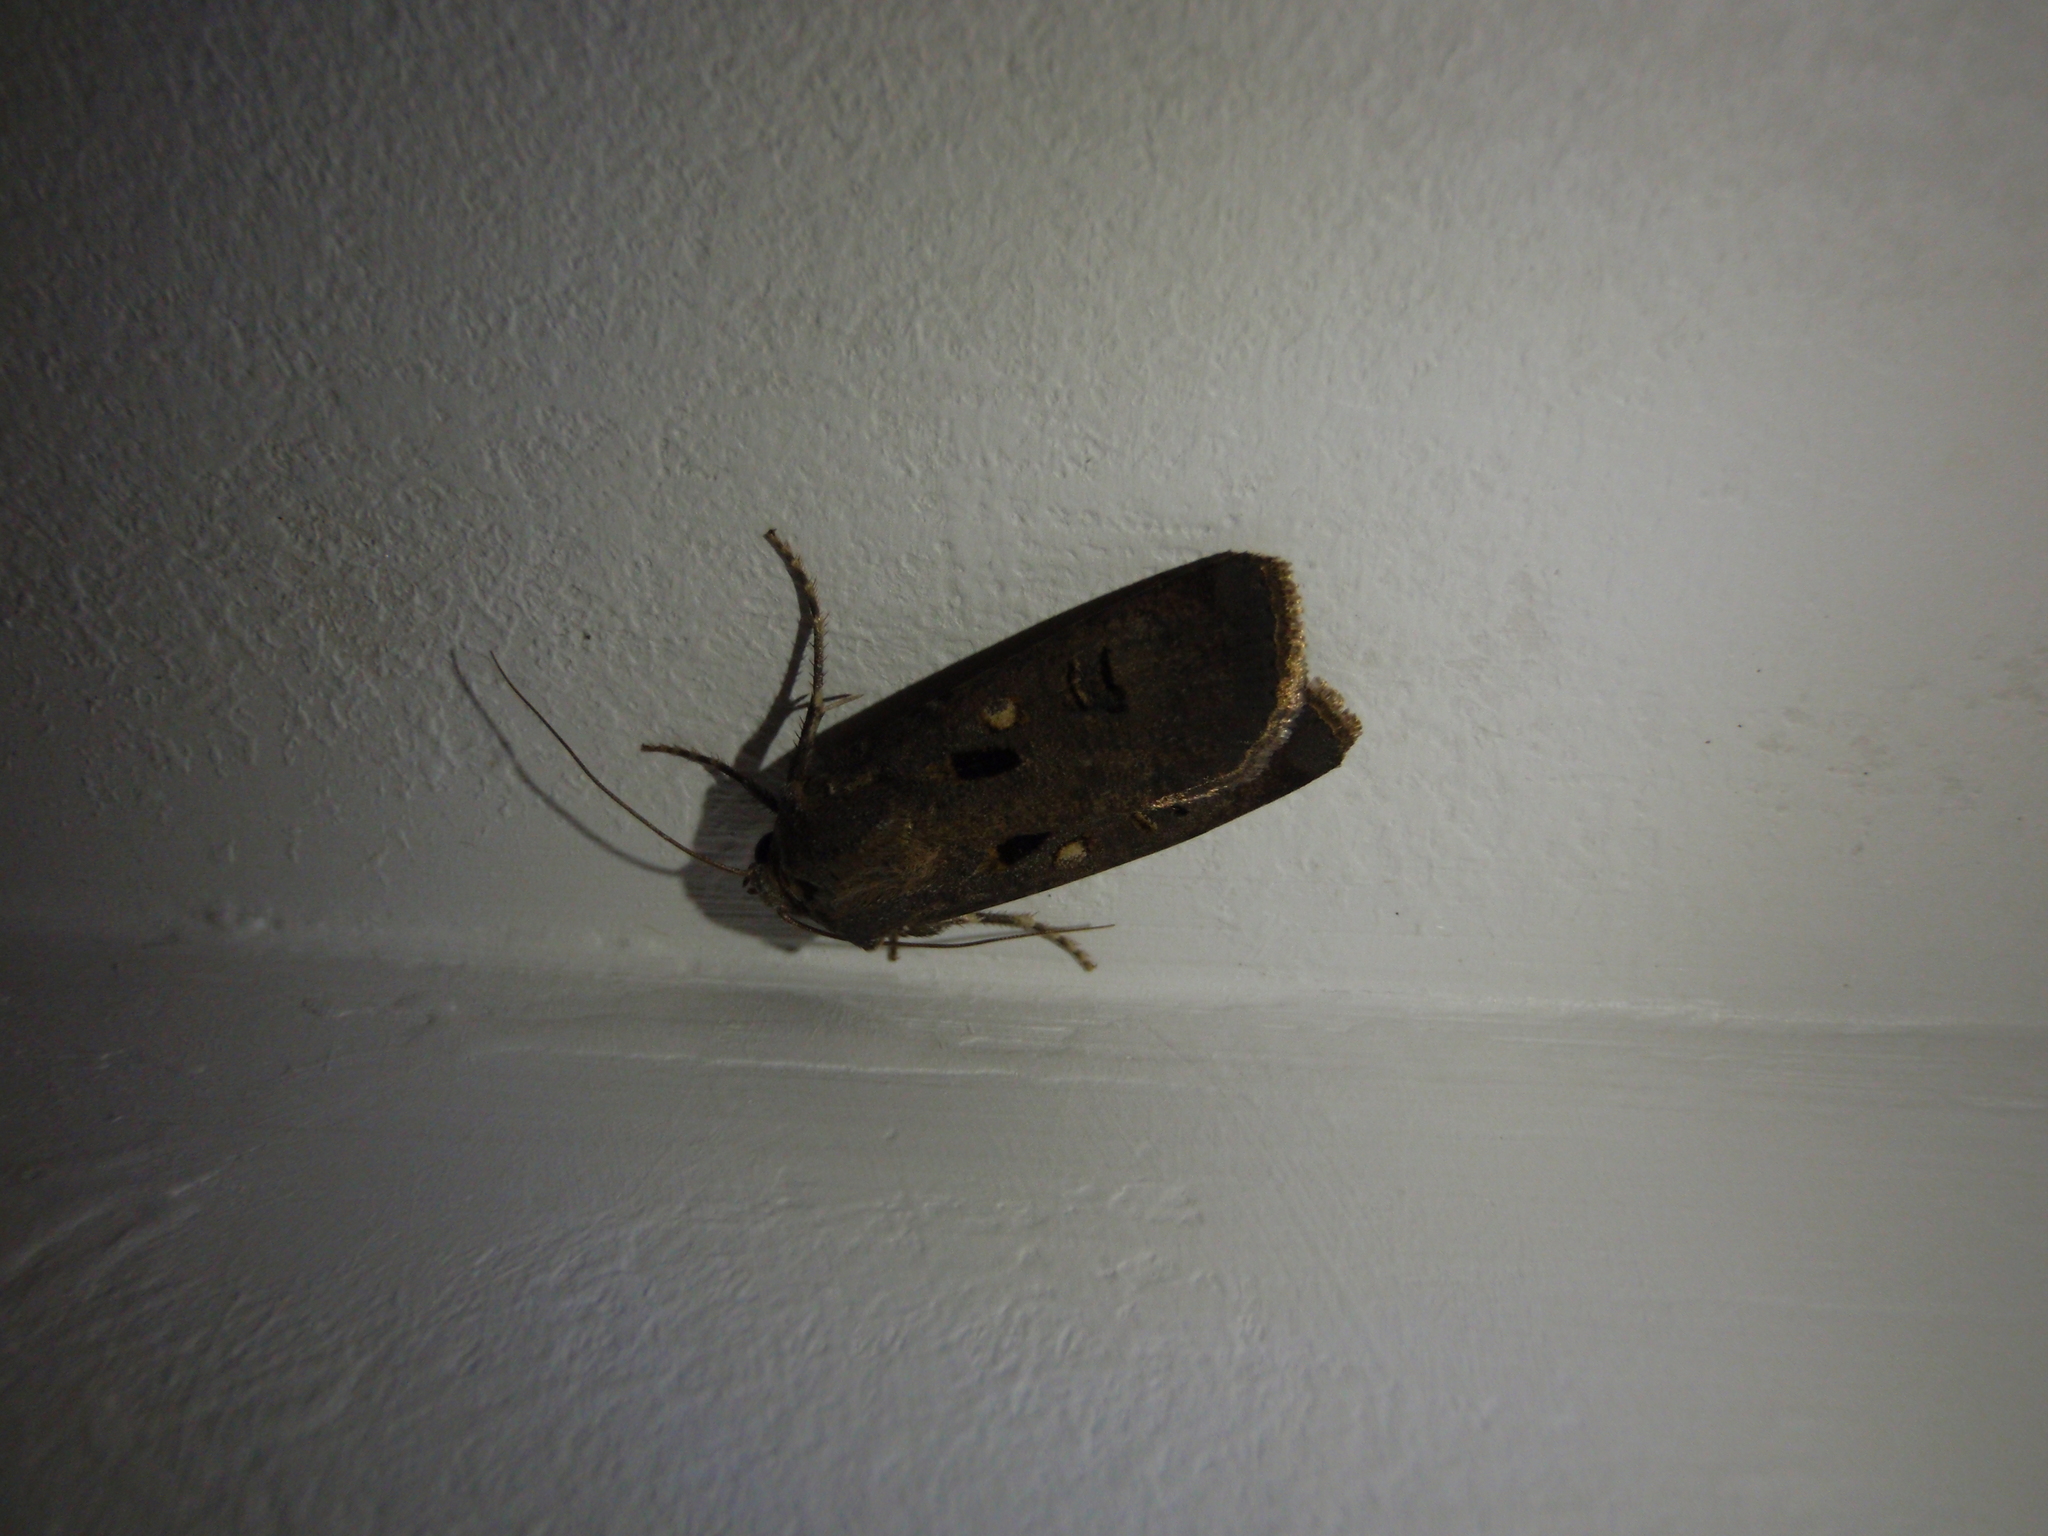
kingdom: Animalia
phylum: Arthropoda
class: Insecta
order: Lepidoptera
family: Noctuidae
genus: Agrotis
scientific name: Agrotis trux
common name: Crescent dart
